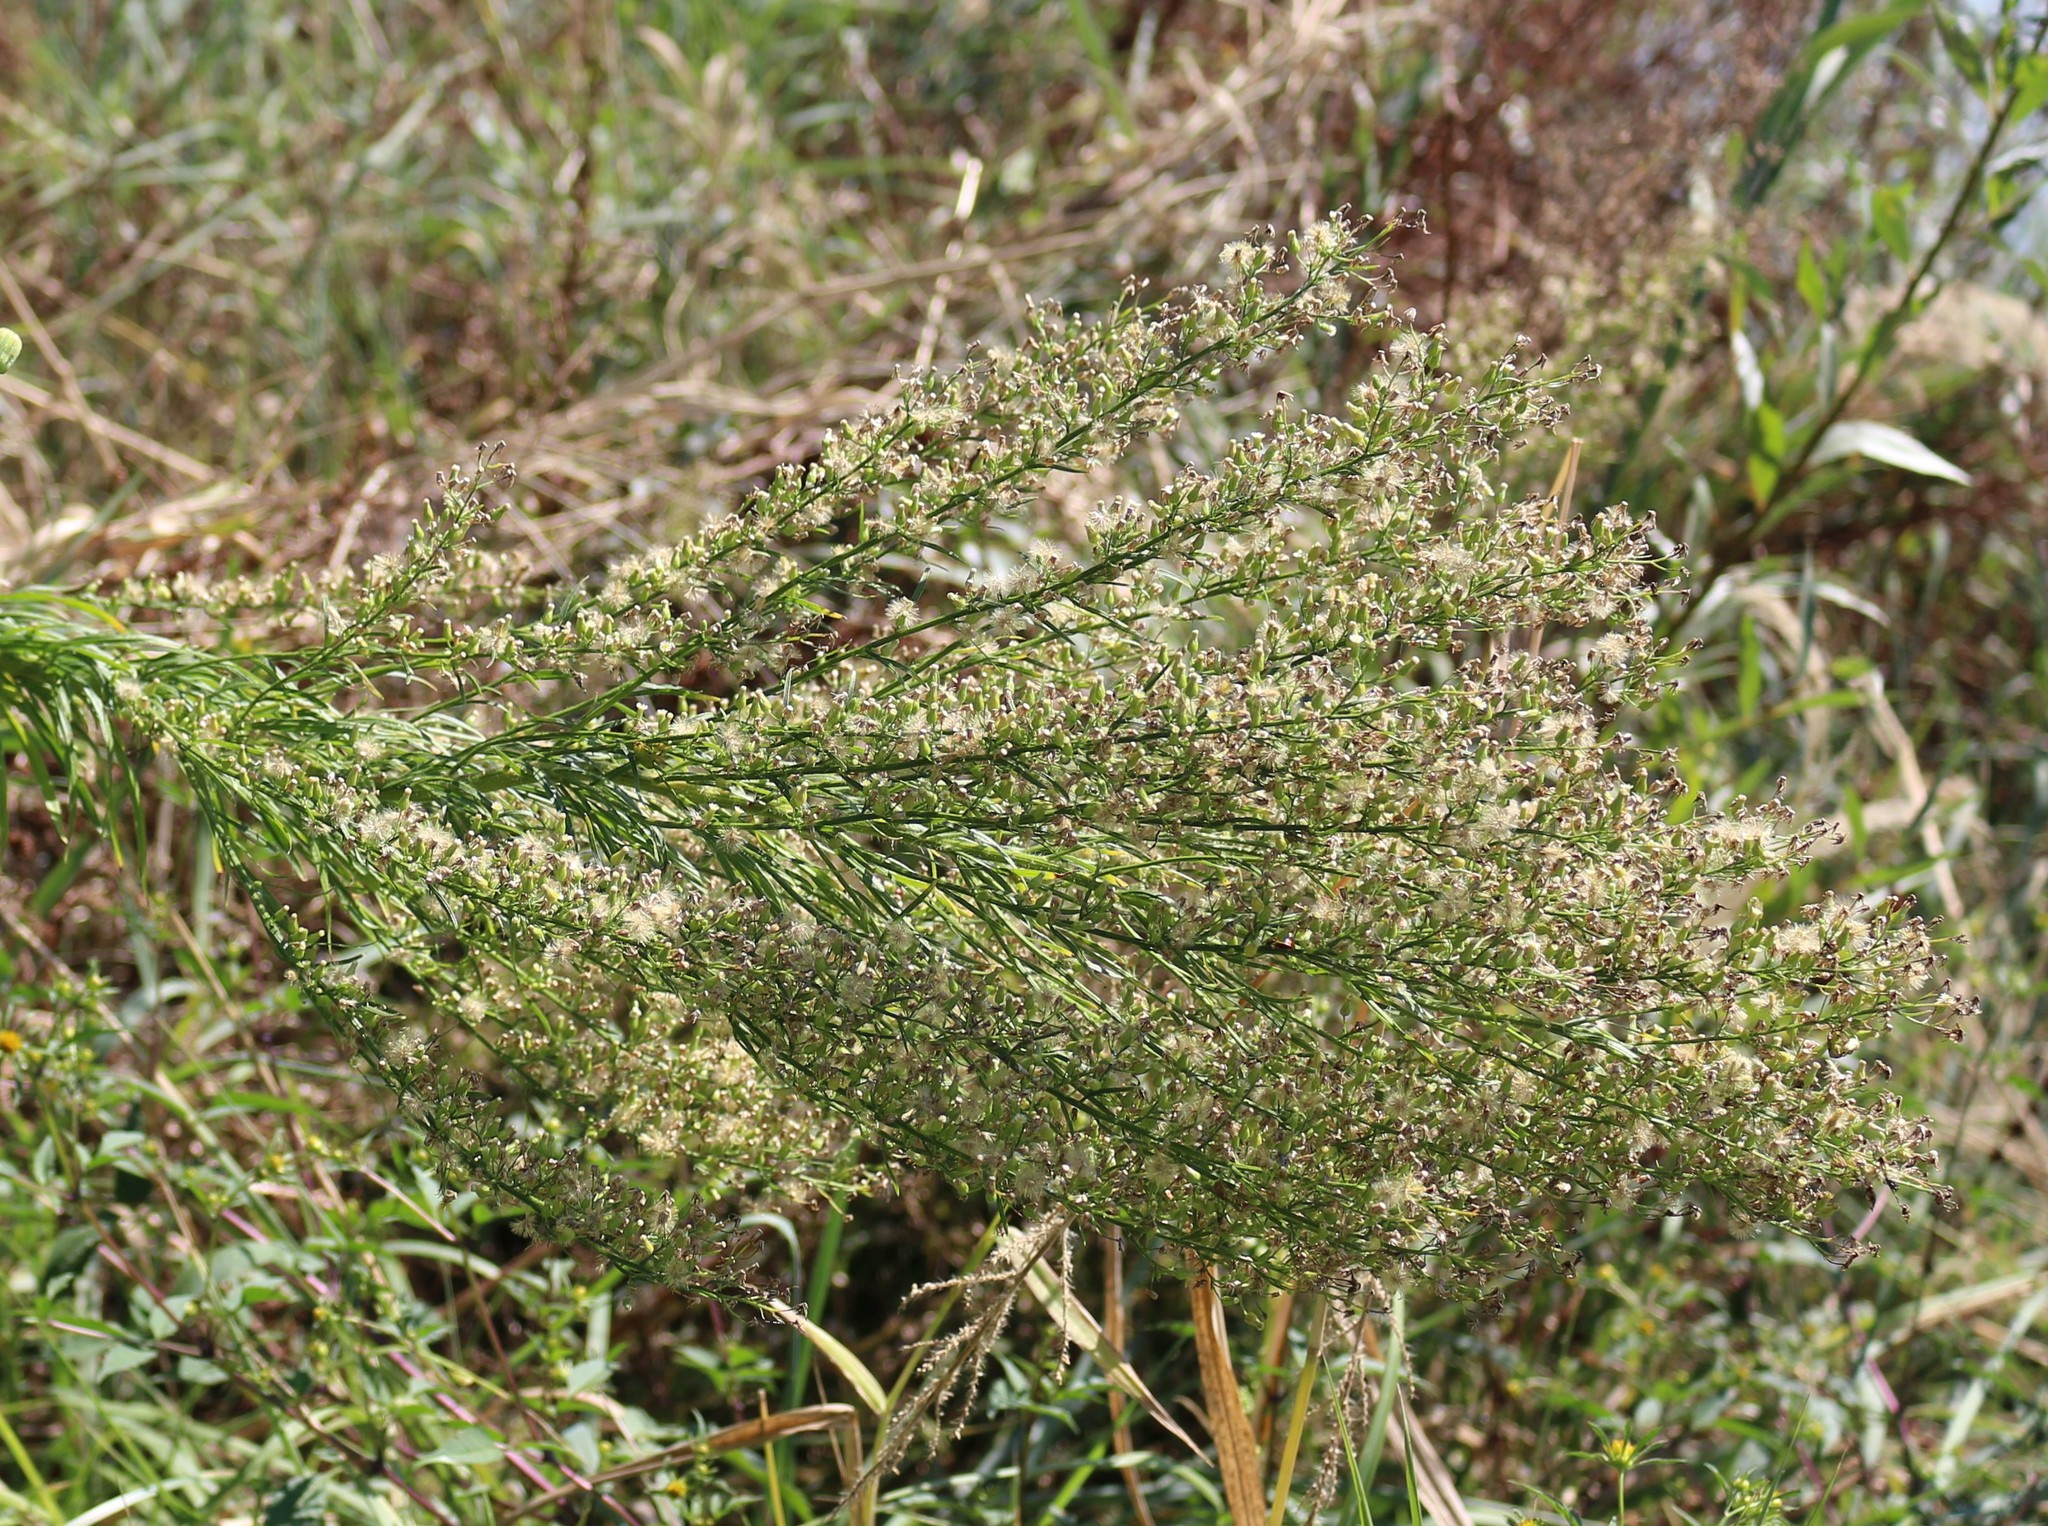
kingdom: Plantae
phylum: Tracheophyta
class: Magnoliopsida
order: Asterales
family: Asteraceae
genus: Erigeron
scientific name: Erigeron canadensis
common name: Canadian fleabane
